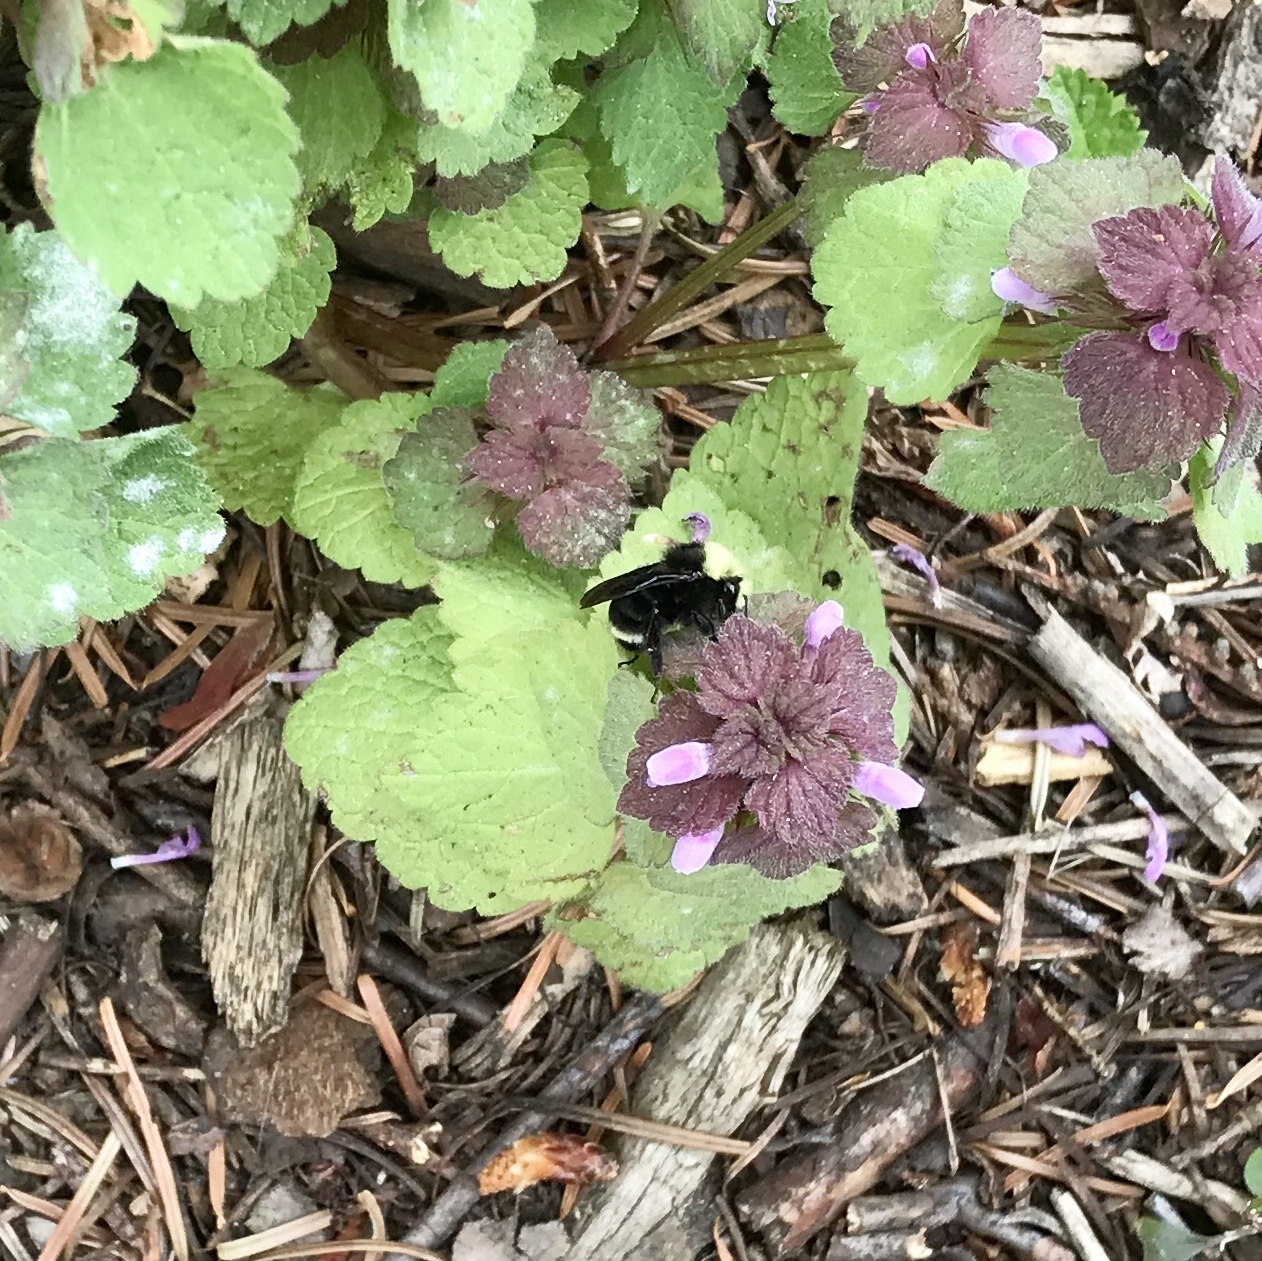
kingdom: Animalia
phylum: Arthropoda
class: Insecta
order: Hymenoptera
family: Apidae
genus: Bombus
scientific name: Bombus vosnesenskii
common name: Vosnesensky bumble bee
